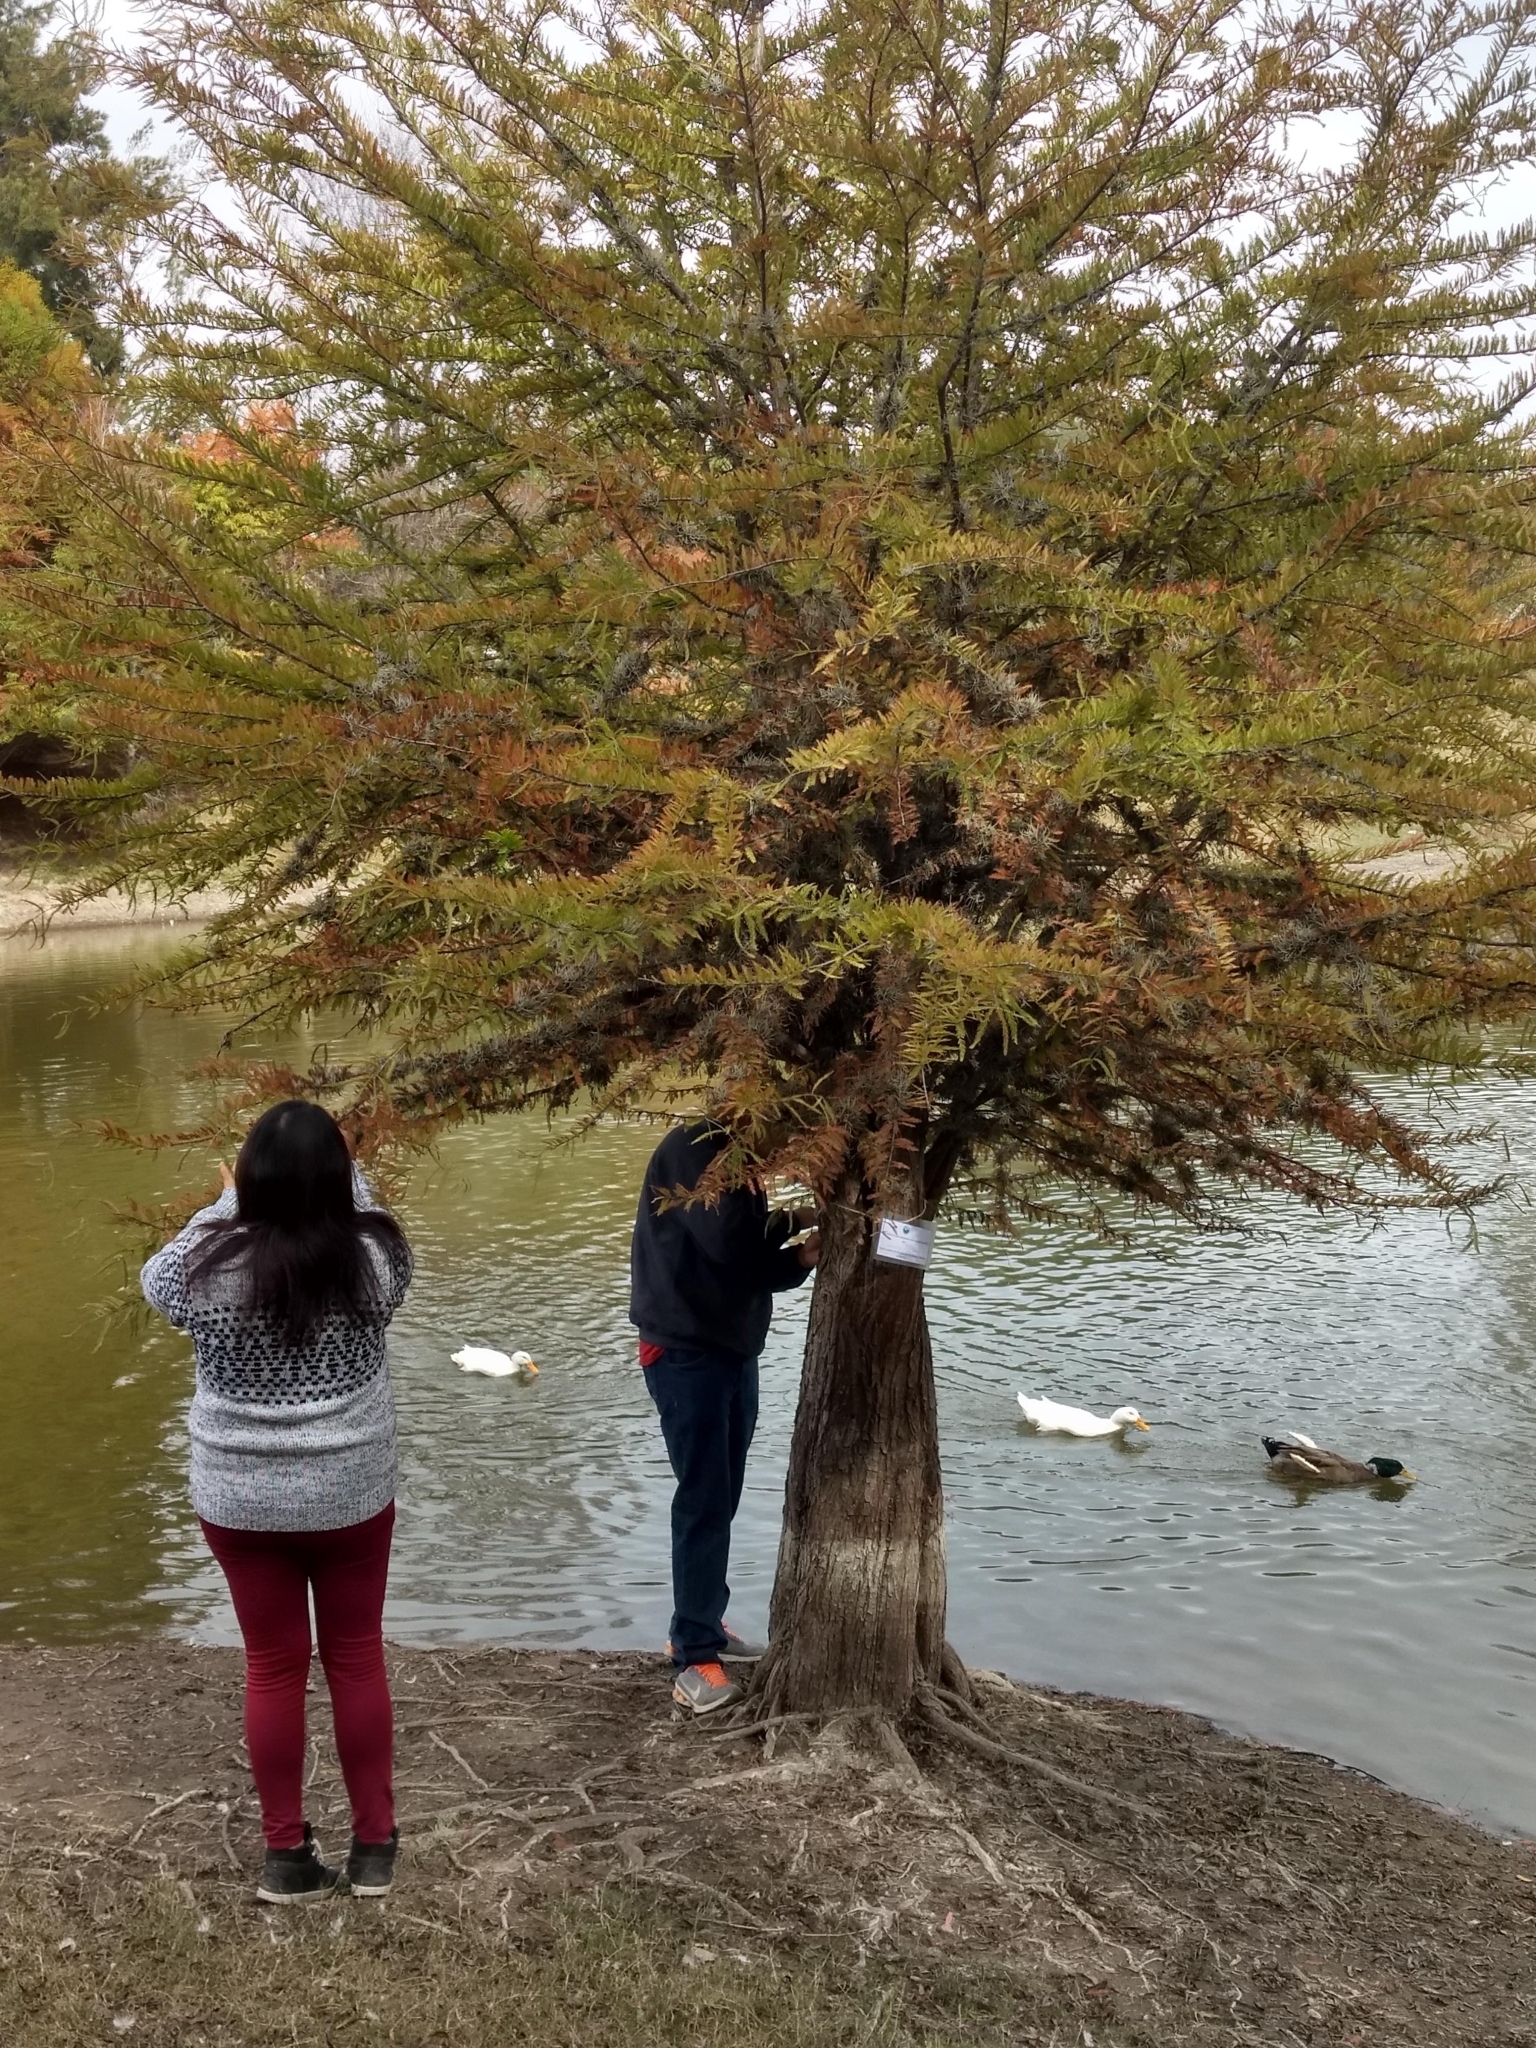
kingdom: Plantae
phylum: Tracheophyta
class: Pinopsida
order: Pinales
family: Cupressaceae
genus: Taxodium
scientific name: Taxodium mucronatum
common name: Montezume bald cypress
